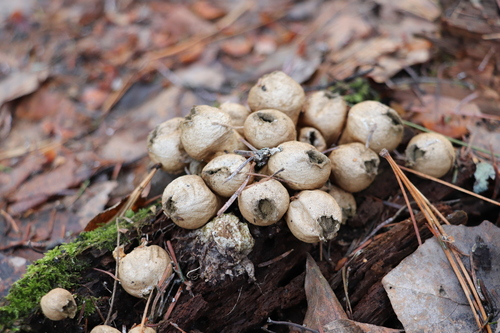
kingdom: Fungi
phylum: Basidiomycota
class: Agaricomycetes
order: Agaricales
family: Lycoperdaceae
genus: Apioperdon
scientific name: Apioperdon pyriforme
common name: Pear-shaped puffball
